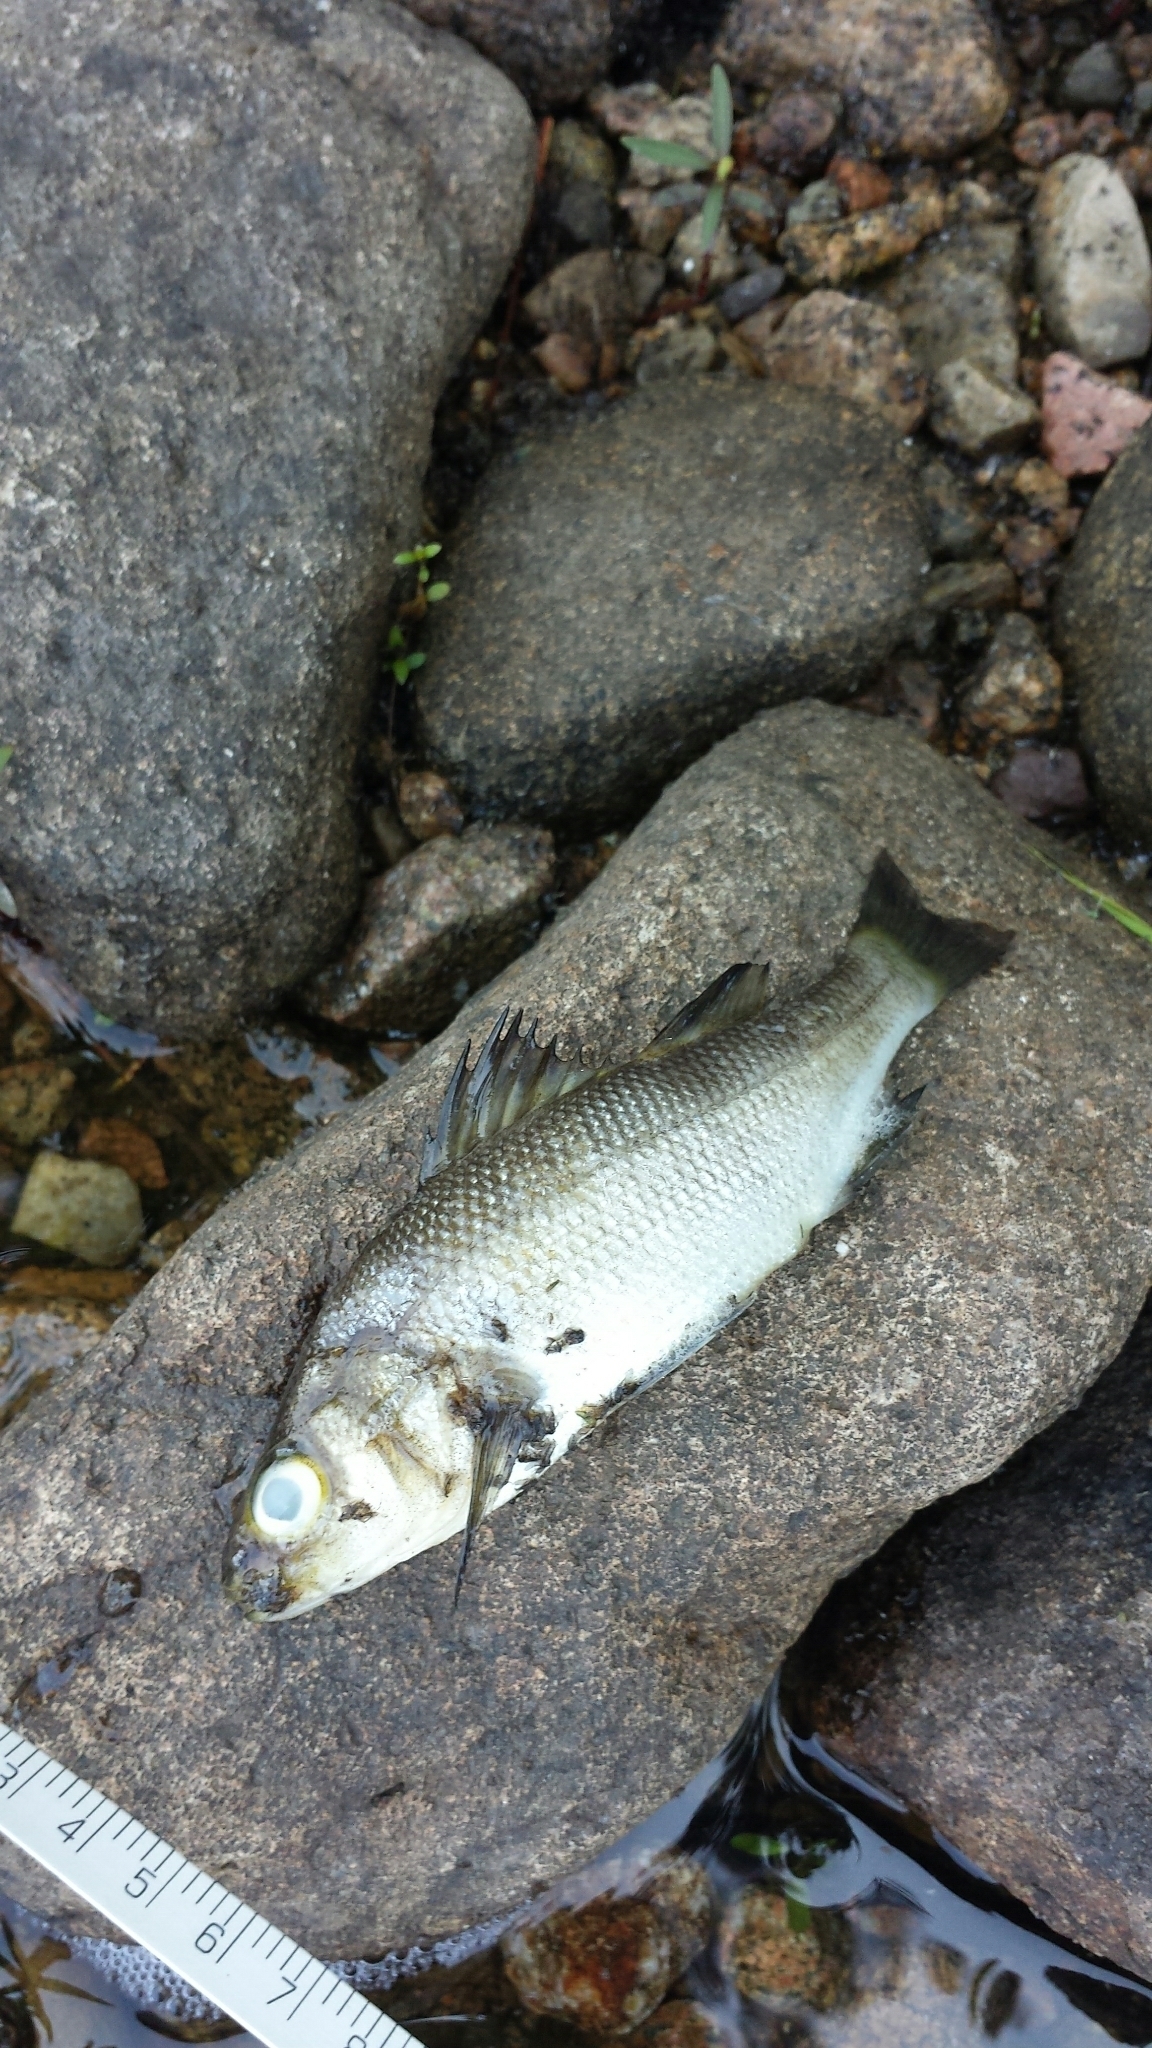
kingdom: Animalia
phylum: Chordata
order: Perciformes
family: Moronidae
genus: Morone
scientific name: Morone americana
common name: White perch
